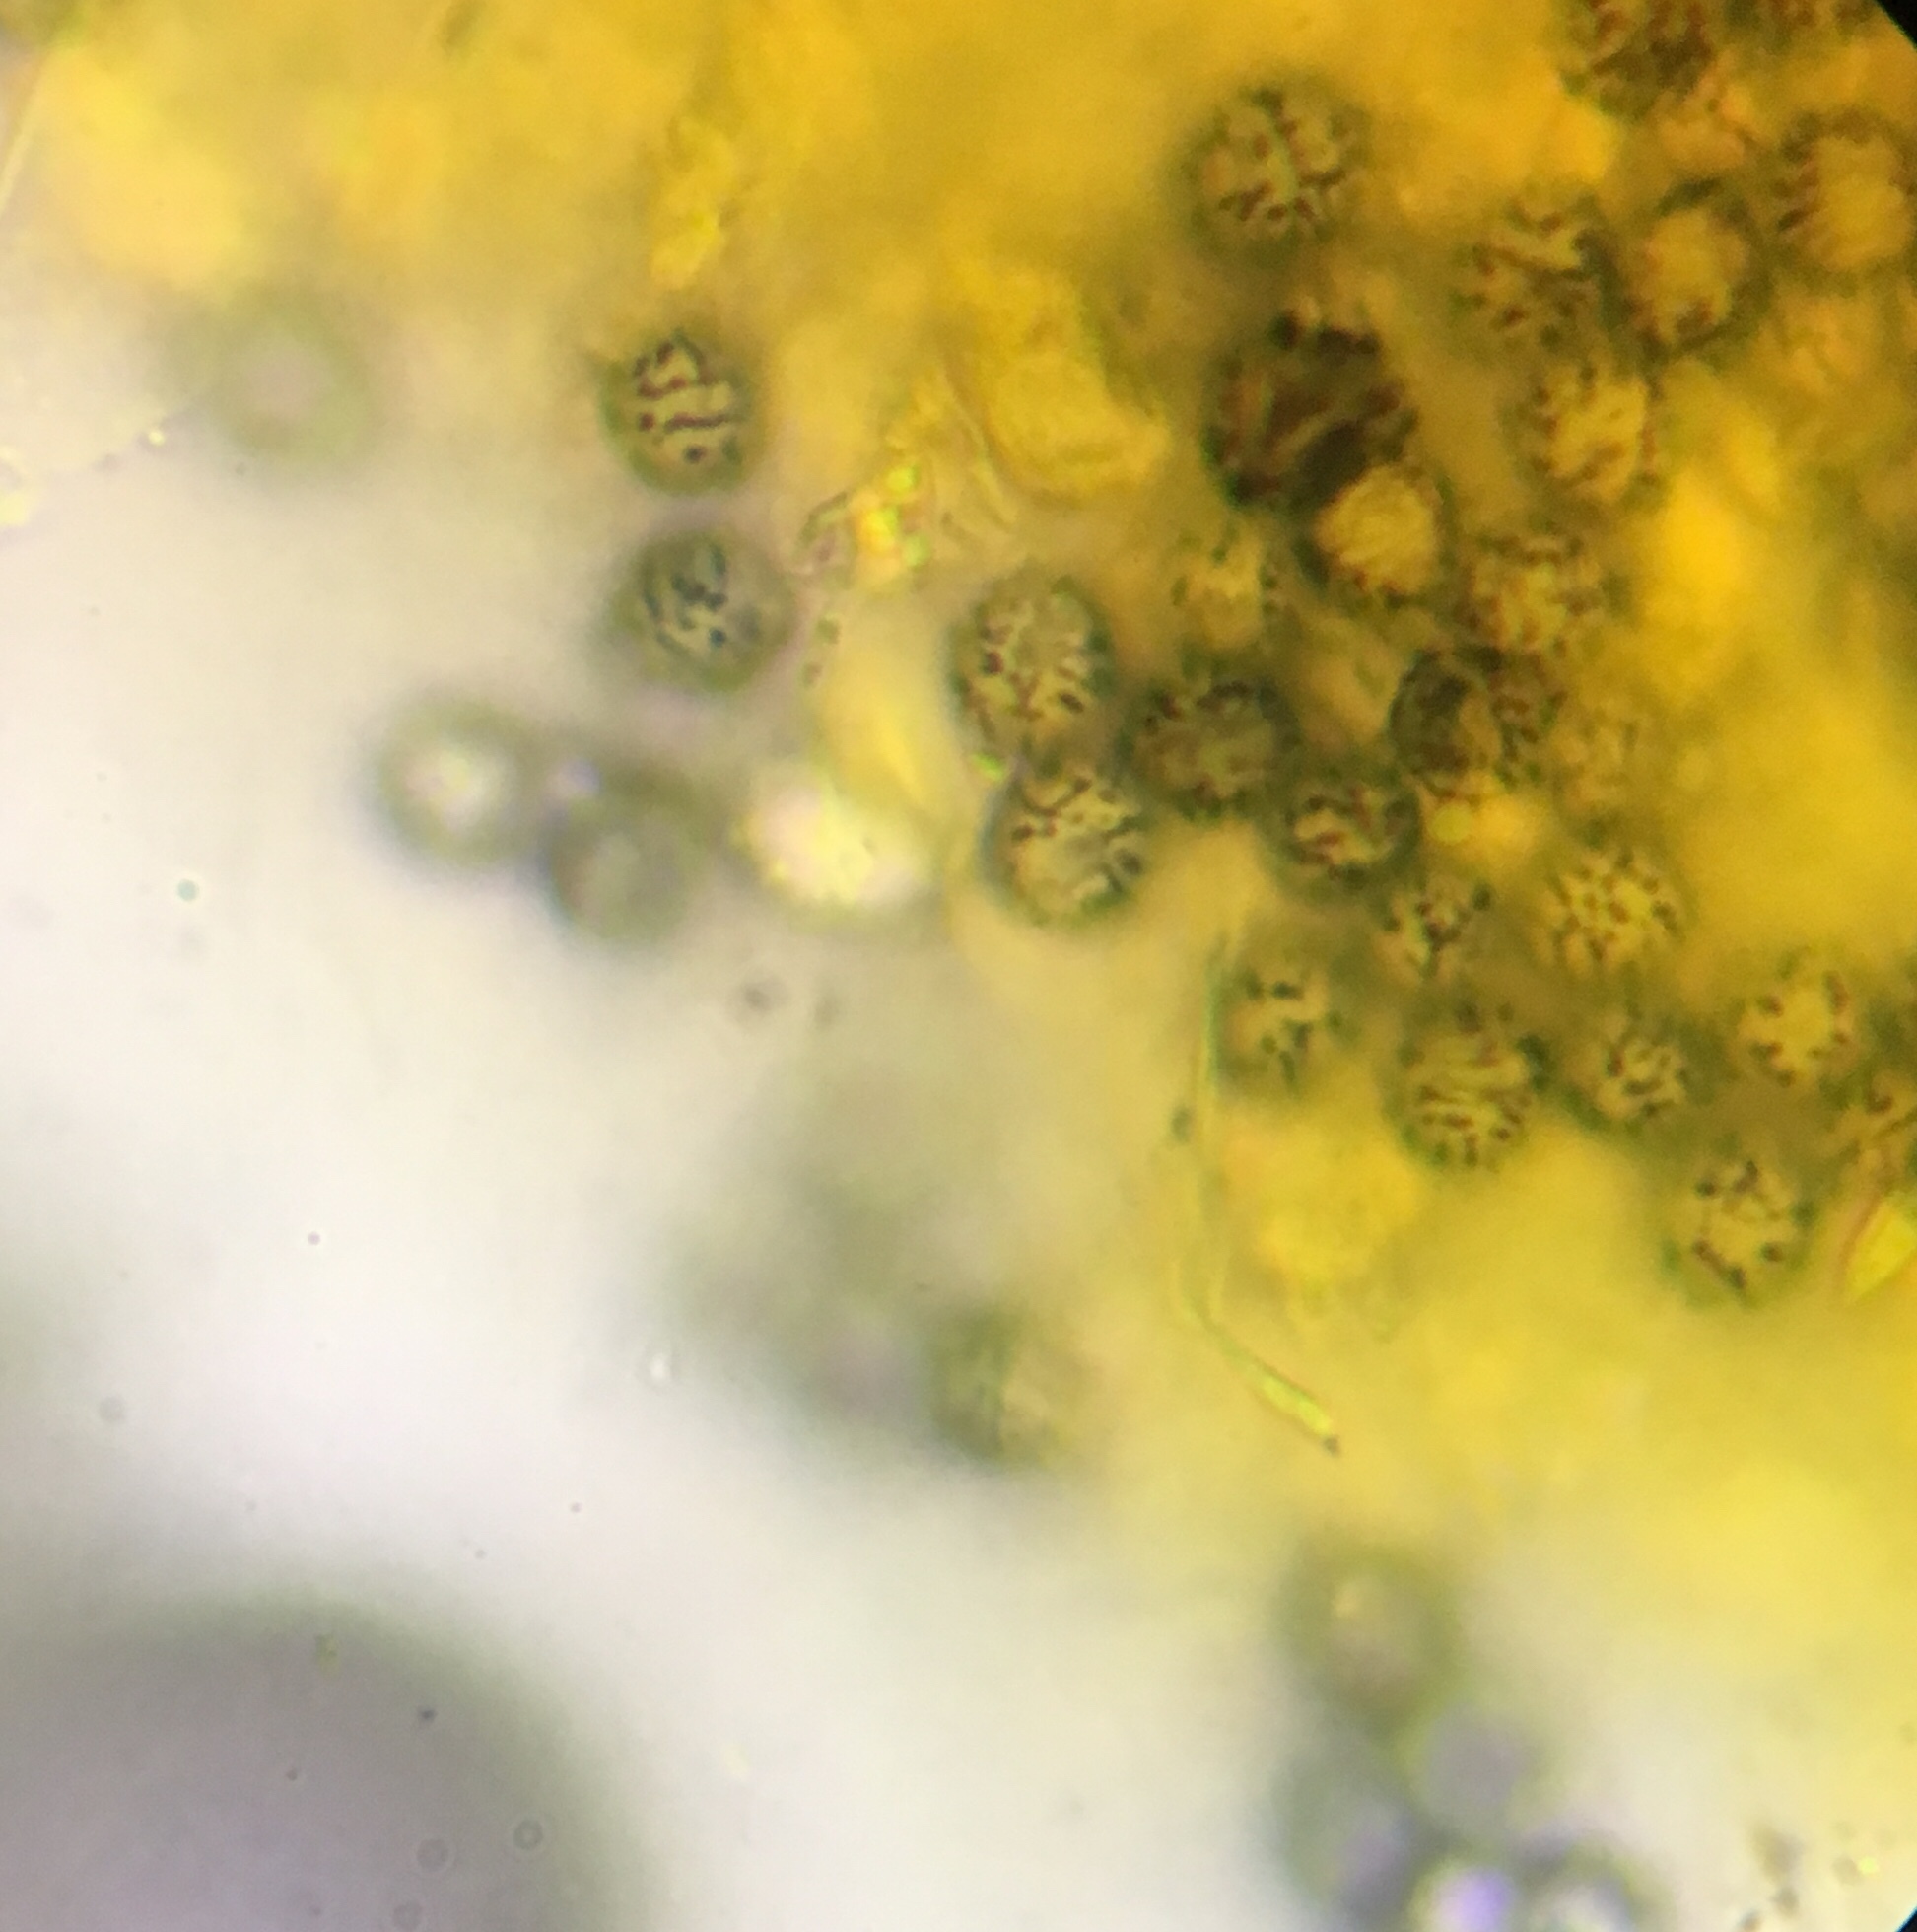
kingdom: Fungi
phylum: Basidiomycota
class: Agaricomycetes
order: Russulales
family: Russulaceae
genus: Russula
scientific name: Russula peckii
